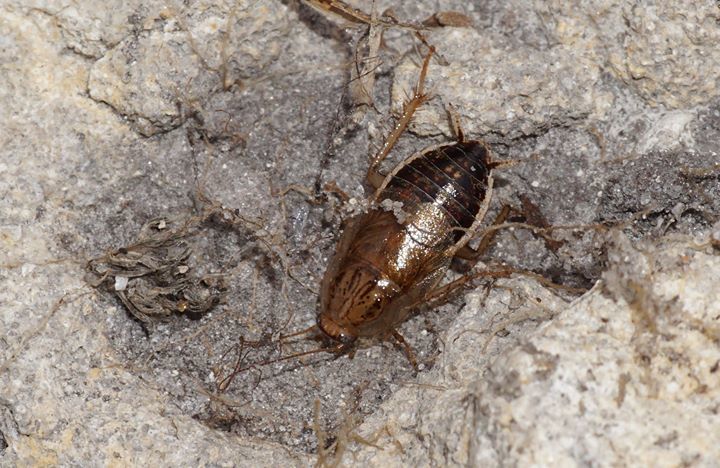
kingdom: Animalia
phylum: Arthropoda
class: Insecta
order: Blattodea
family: Ectobiidae
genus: Cariblatta
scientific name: Cariblatta minima
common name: Least yellow cockroach
